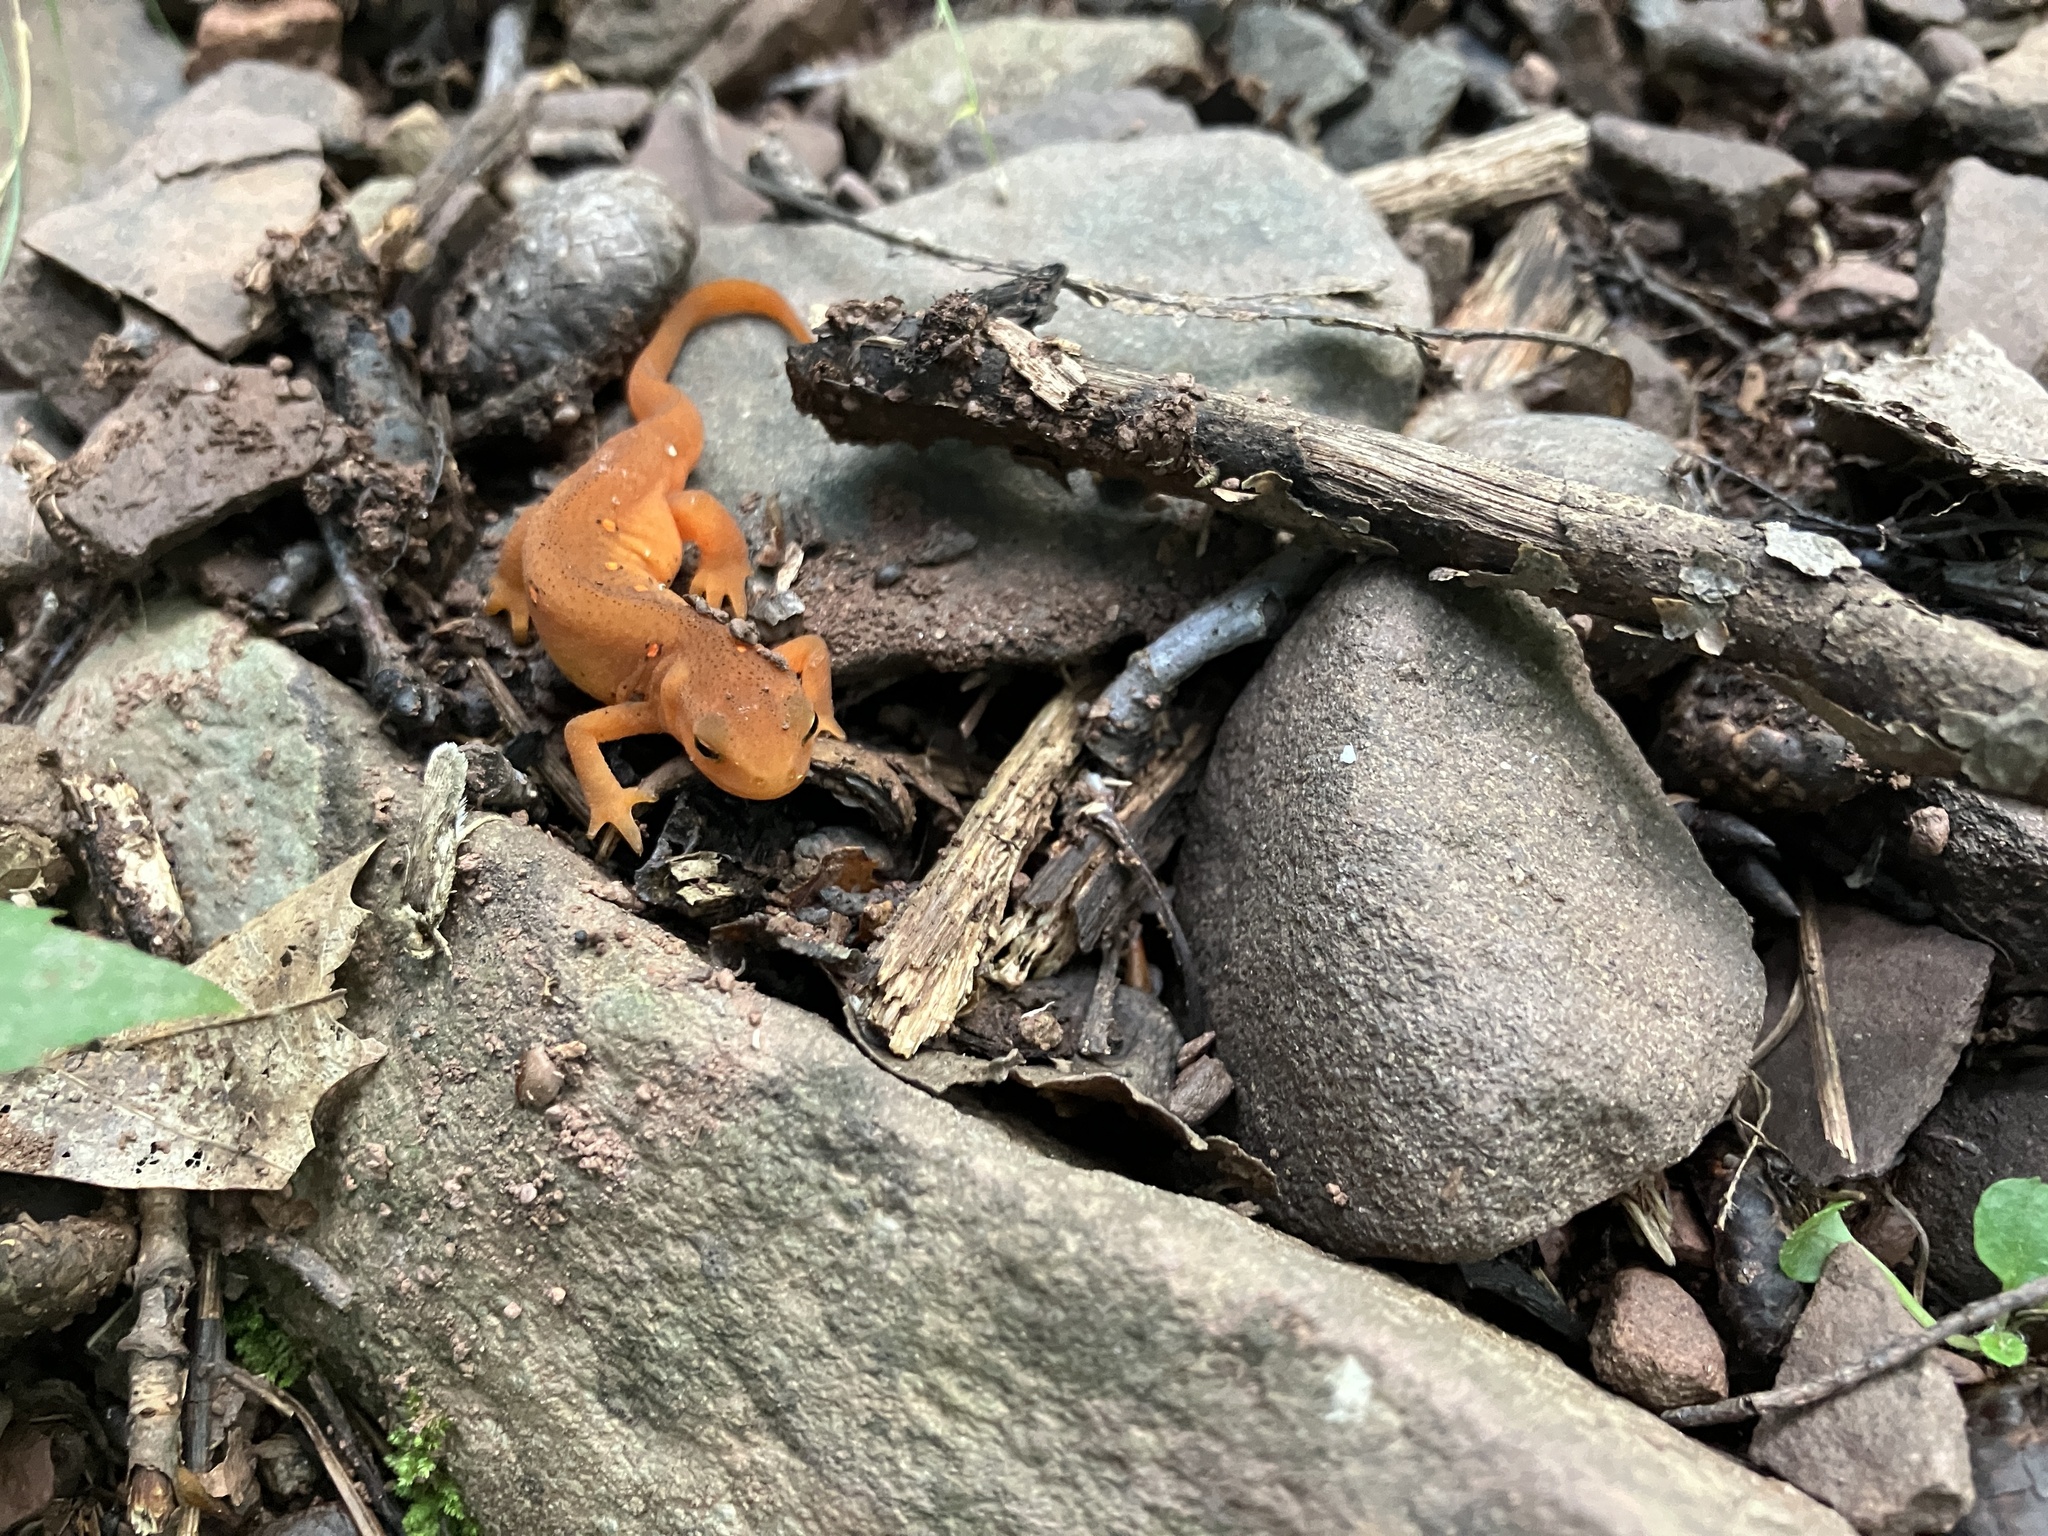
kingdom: Animalia
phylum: Chordata
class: Amphibia
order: Caudata
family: Salamandridae
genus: Notophthalmus
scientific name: Notophthalmus viridescens
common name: Eastern newt
